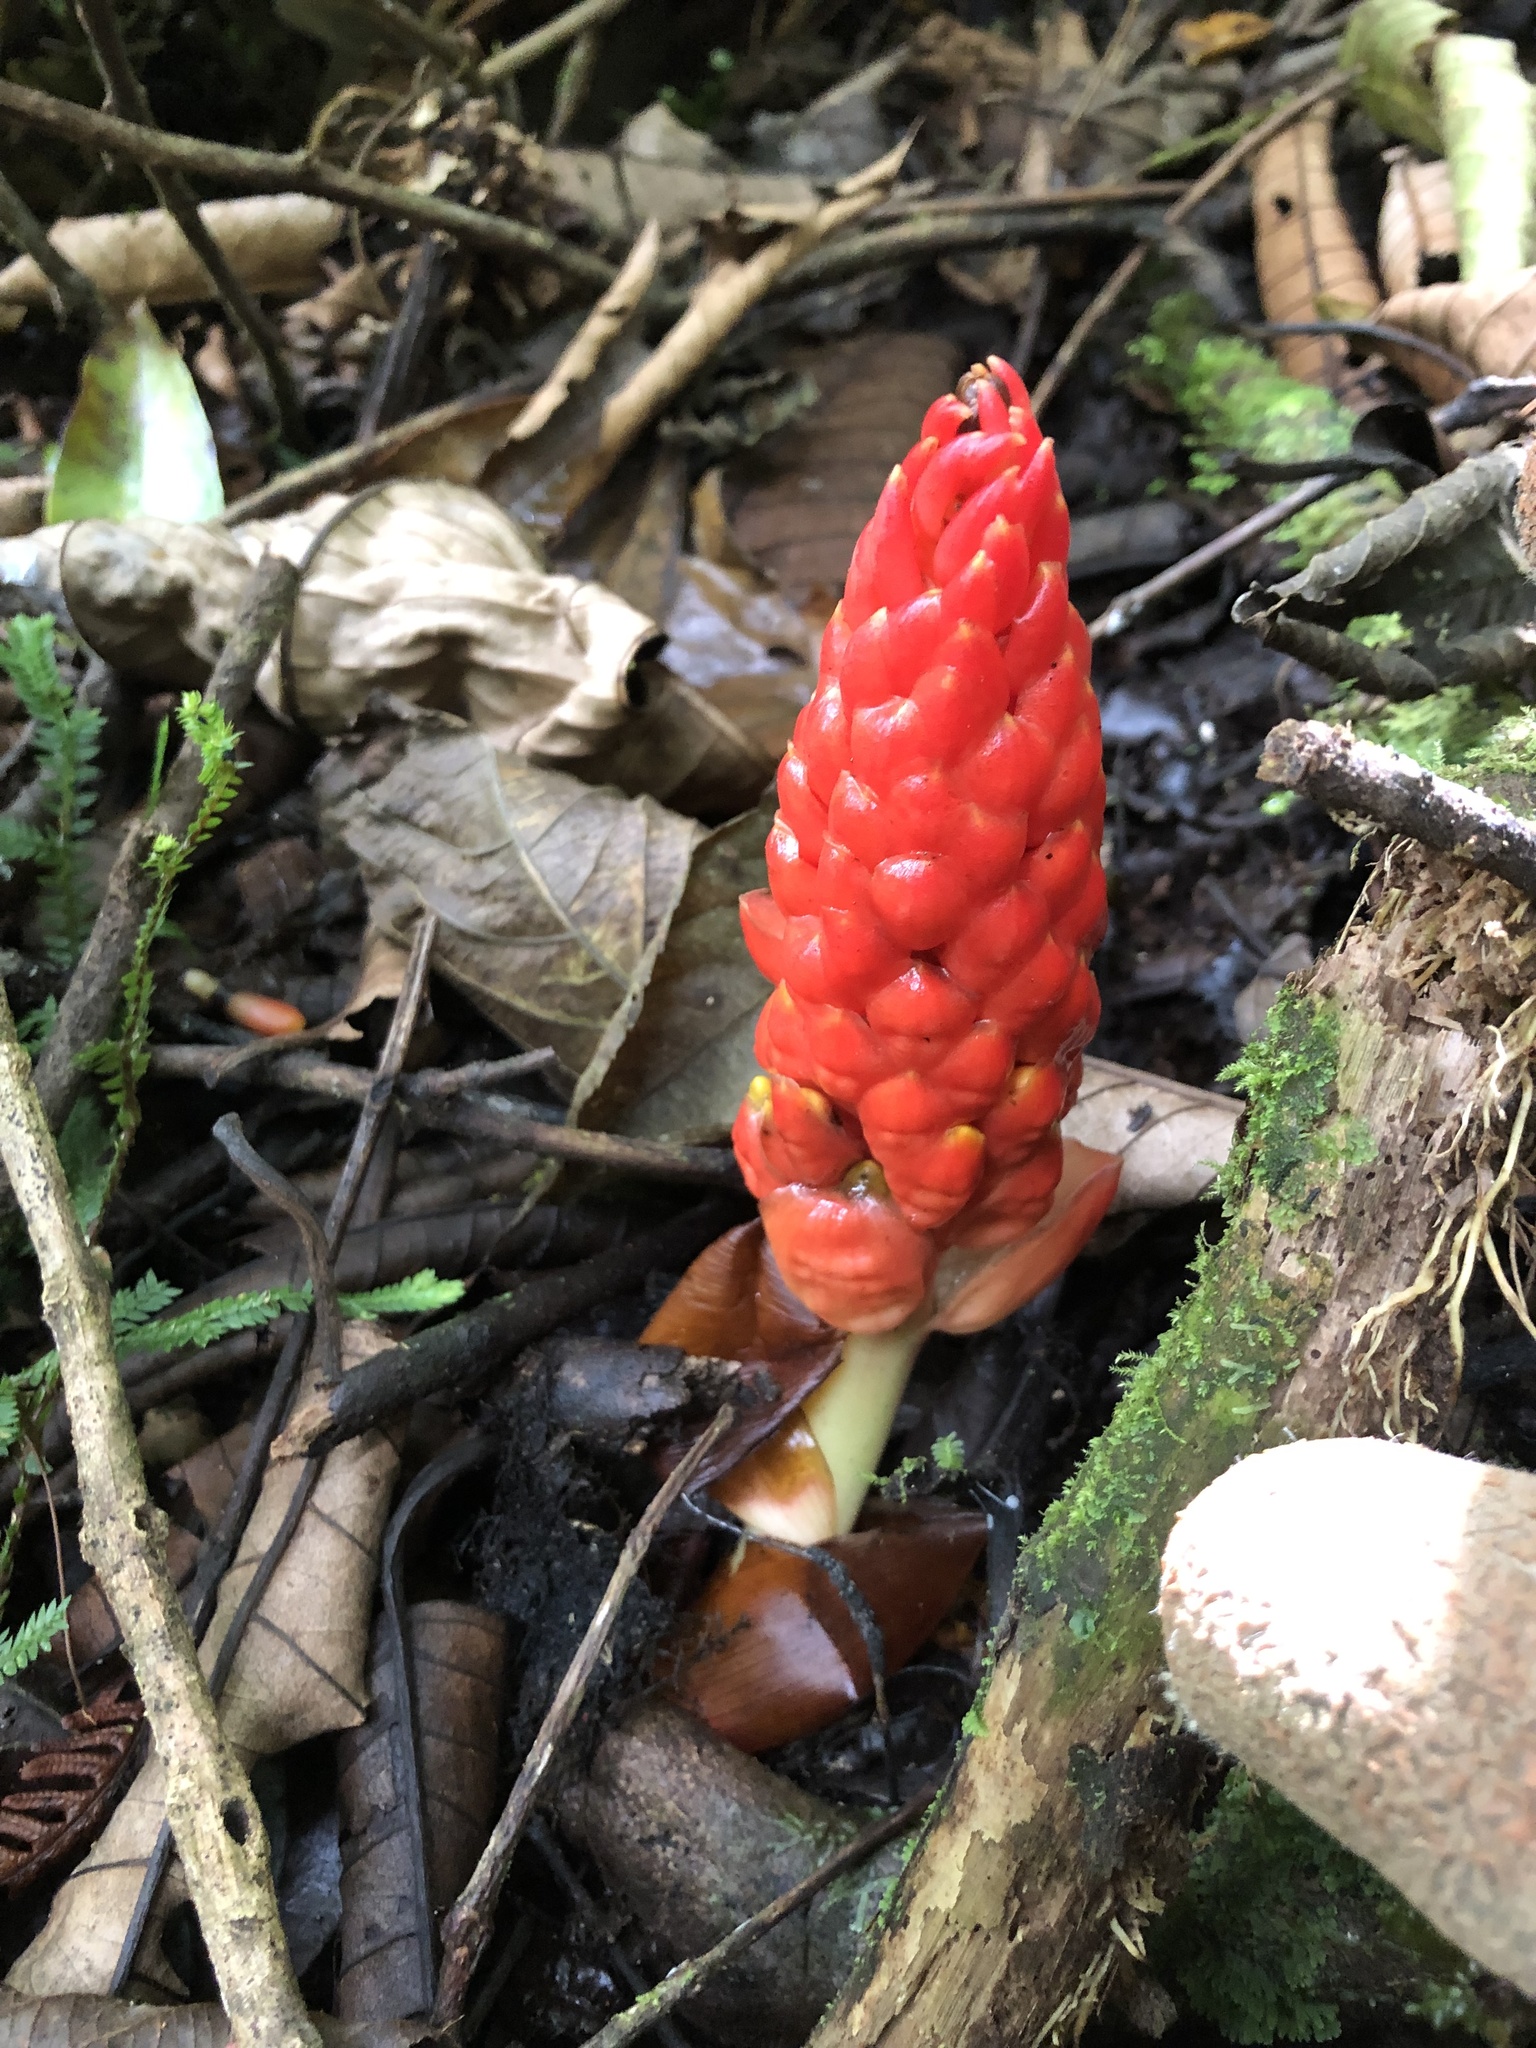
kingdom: Plantae
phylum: Tracheophyta
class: Liliopsida
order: Zingiberales
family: Zingiberaceae
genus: Renealmia
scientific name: Renealmia thyrsoidea
